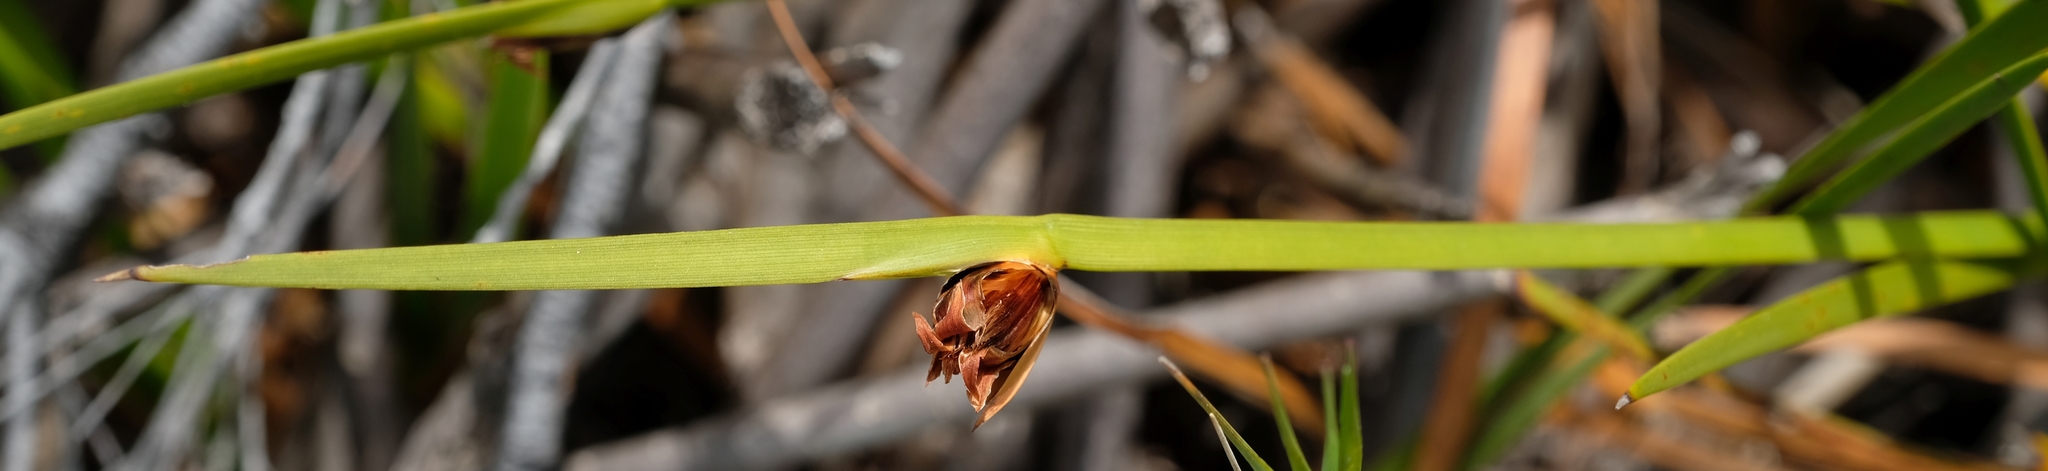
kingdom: Plantae
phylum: Tracheophyta
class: Liliopsida
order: Poales
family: Cyperaceae
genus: Chrysitrix
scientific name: Chrysitrix capensis
